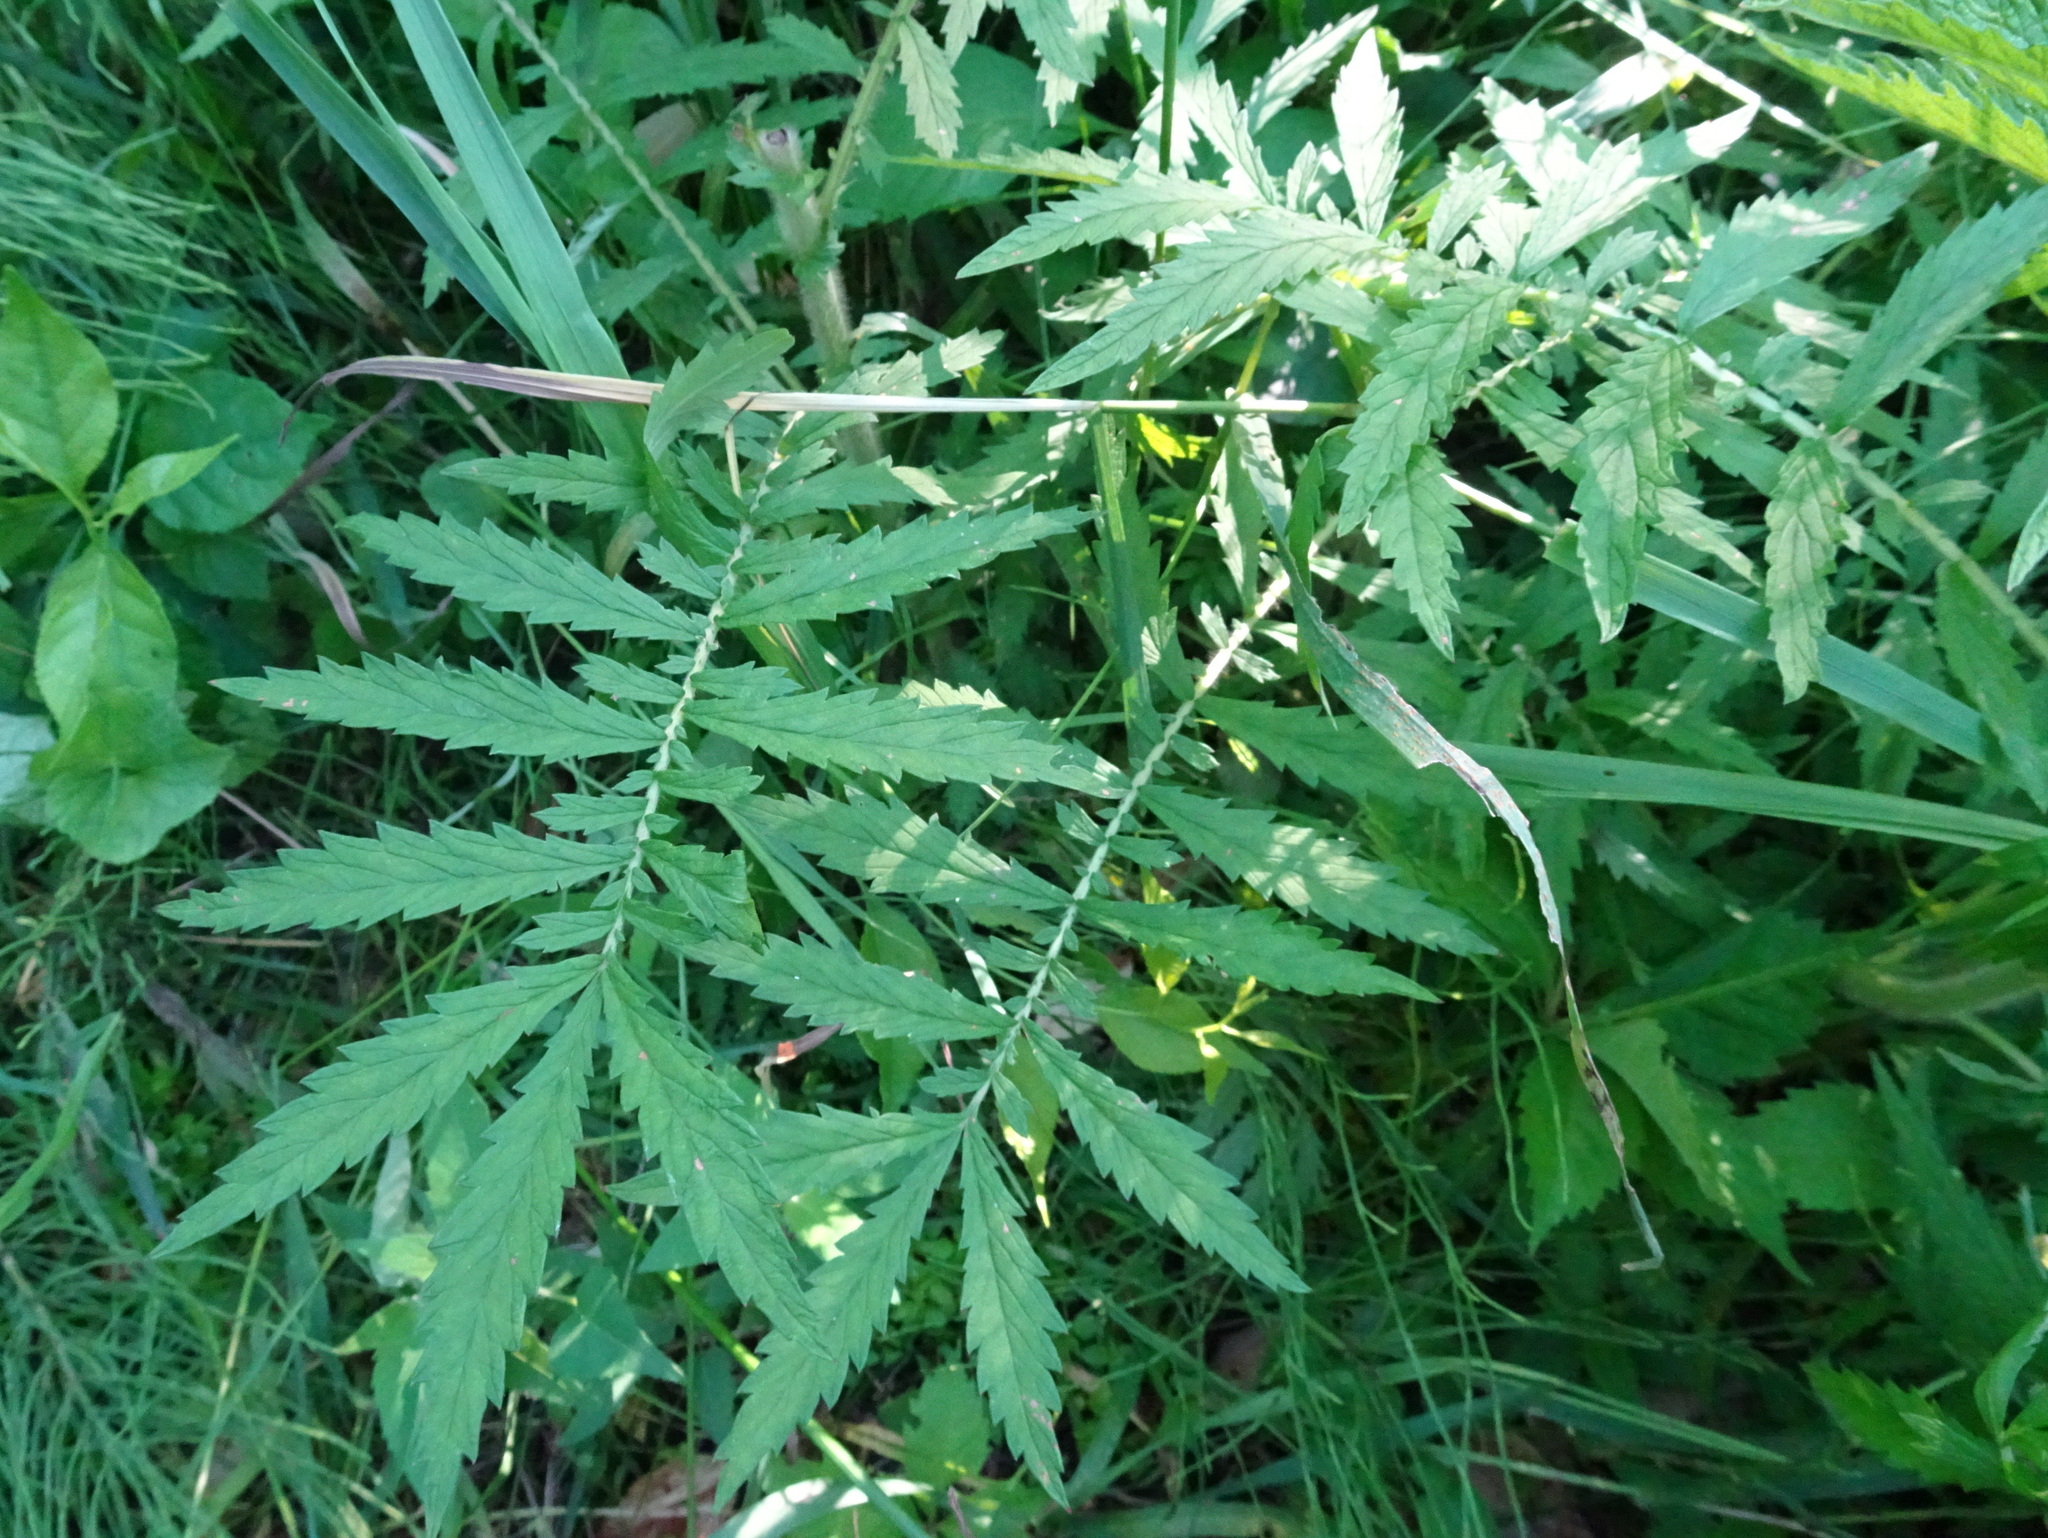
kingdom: Plantae
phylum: Tracheophyta
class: Magnoliopsida
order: Rosales
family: Rosaceae
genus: Agrimonia
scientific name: Agrimonia parviflora
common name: Harvest-lice
